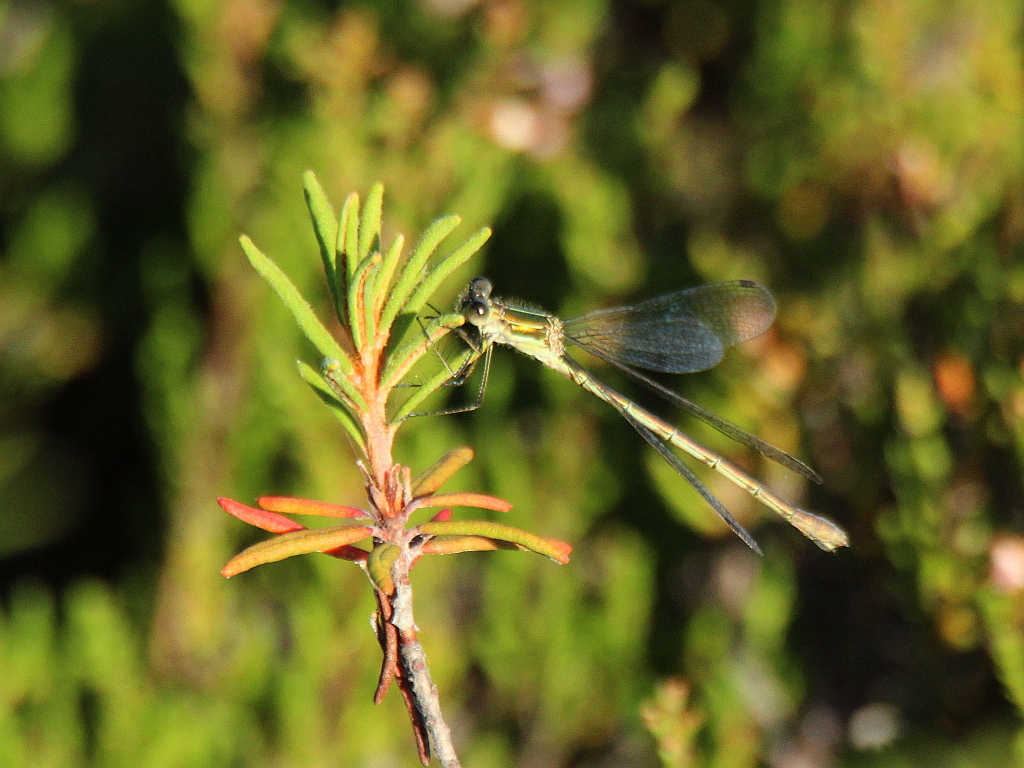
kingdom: Animalia
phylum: Arthropoda
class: Insecta
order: Odonata
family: Lestidae
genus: Lestes
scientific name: Lestes sponsa
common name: Common spreadwing
